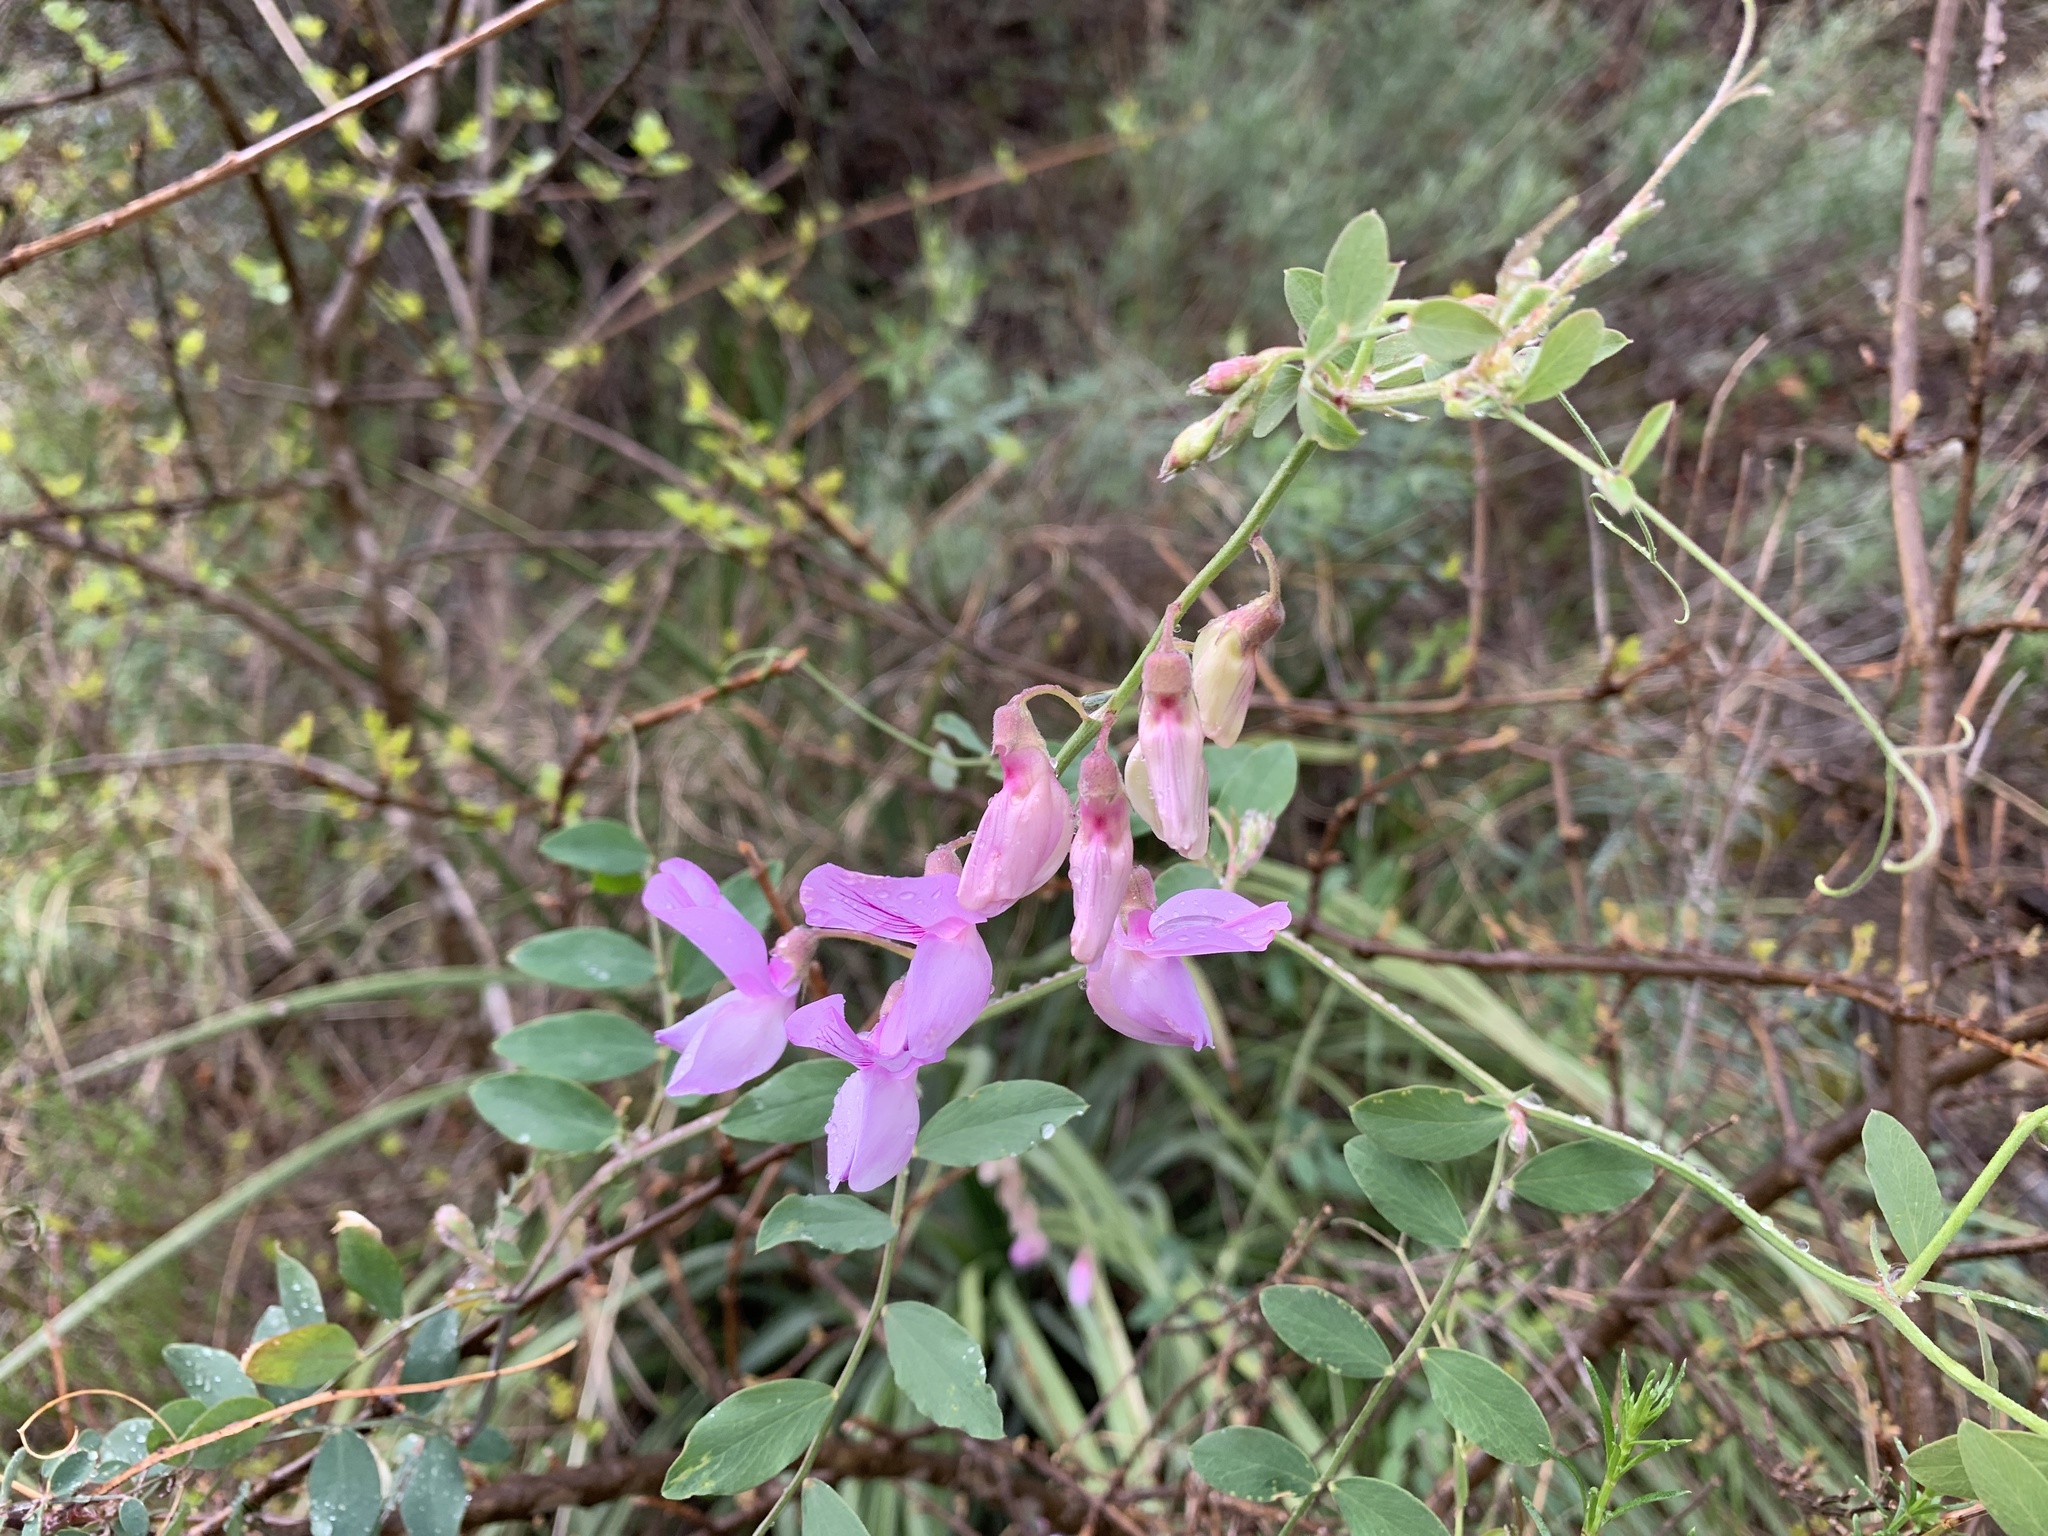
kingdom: Plantae
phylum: Tracheophyta
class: Magnoliopsida
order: Fabales
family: Fabaceae
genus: Lathyrus
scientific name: Lathyrus vestitus
